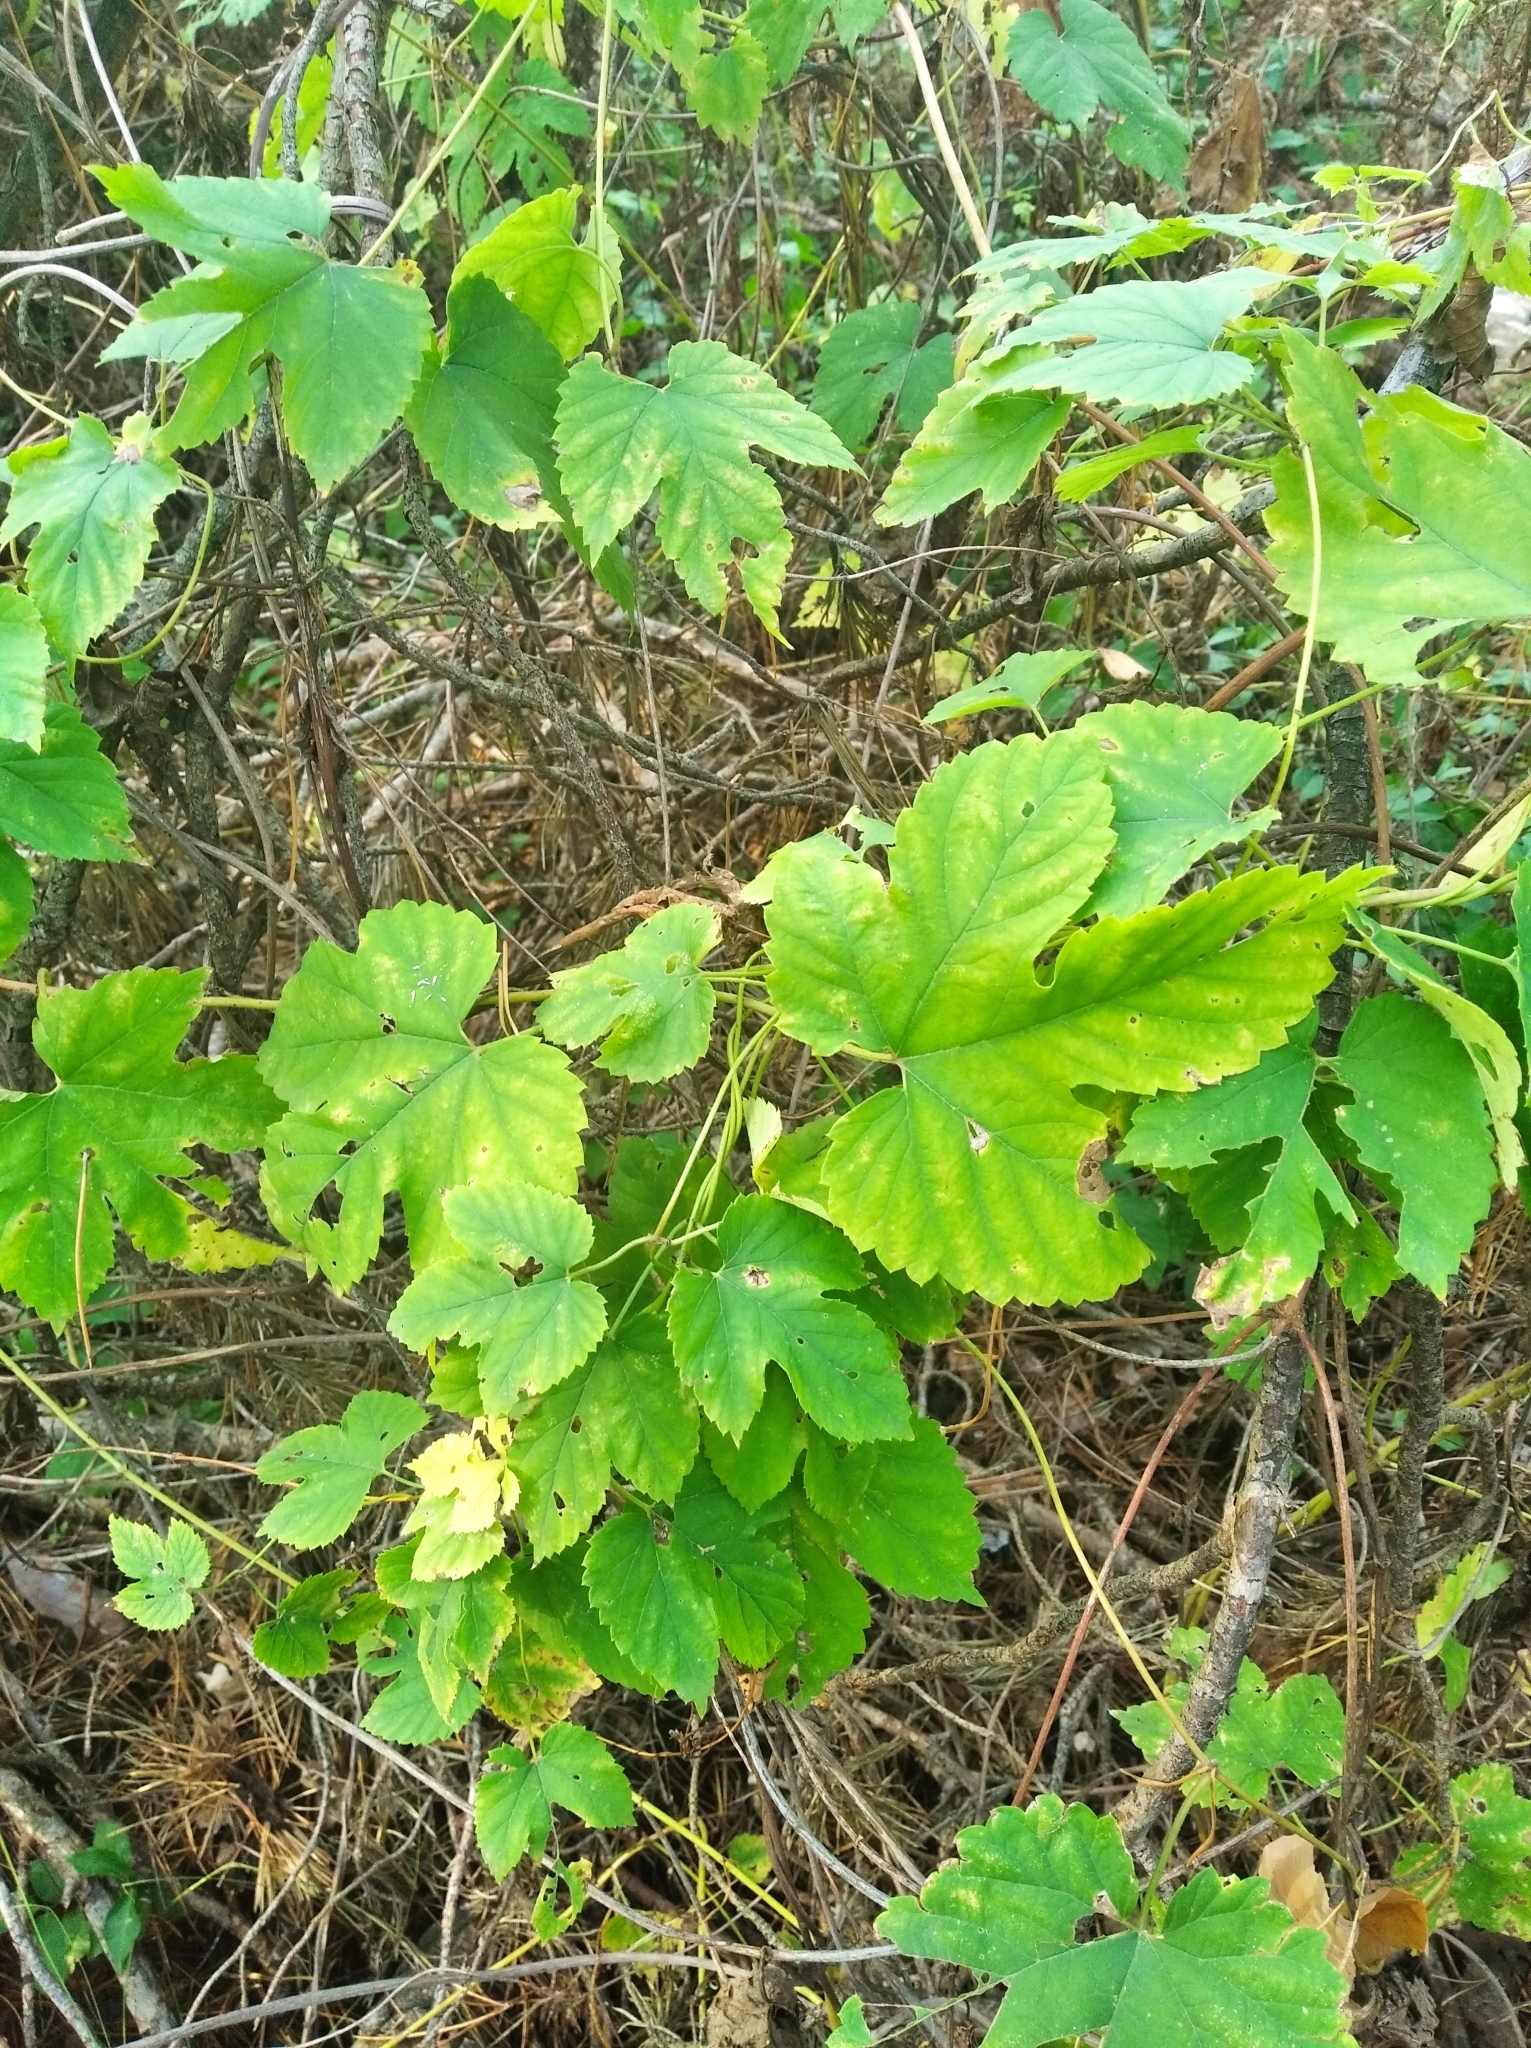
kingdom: Plantae
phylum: Tracheophyta
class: Magnoliopsida
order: Rosales
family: Cannabaceae
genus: Humulus
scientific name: Humulus lupulus
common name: Hop
